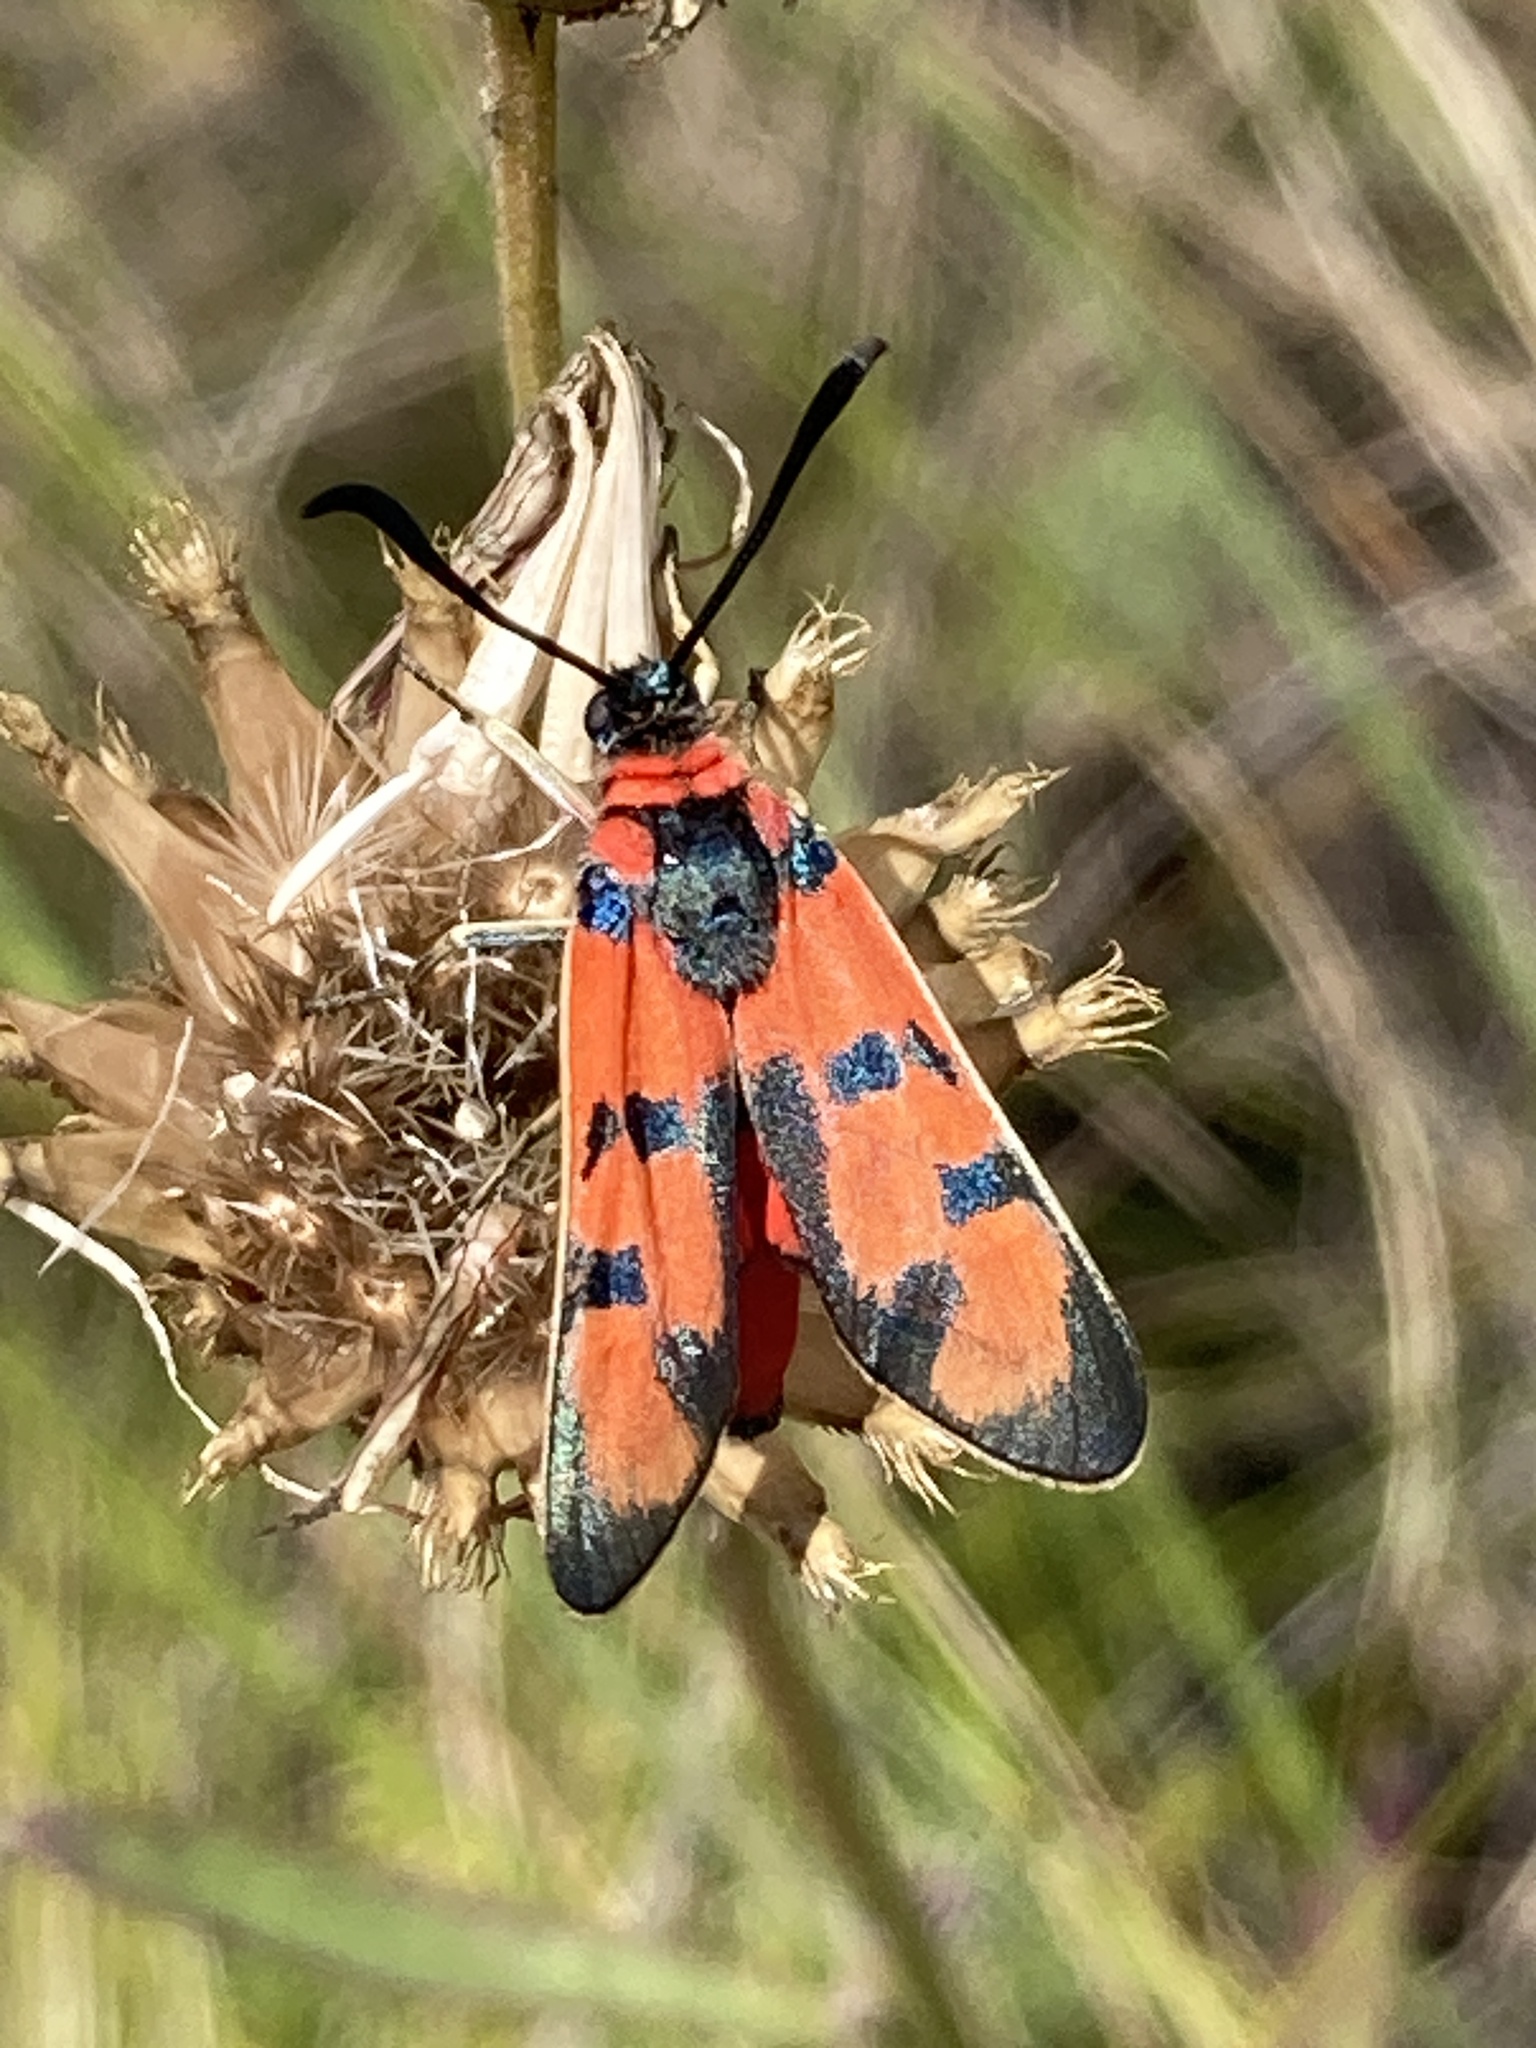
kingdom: Animalia
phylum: Arthropoda
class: Insecta
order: Lepidoptera
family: Zygaenidae
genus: Zygaena
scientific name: Zygaena laeta
